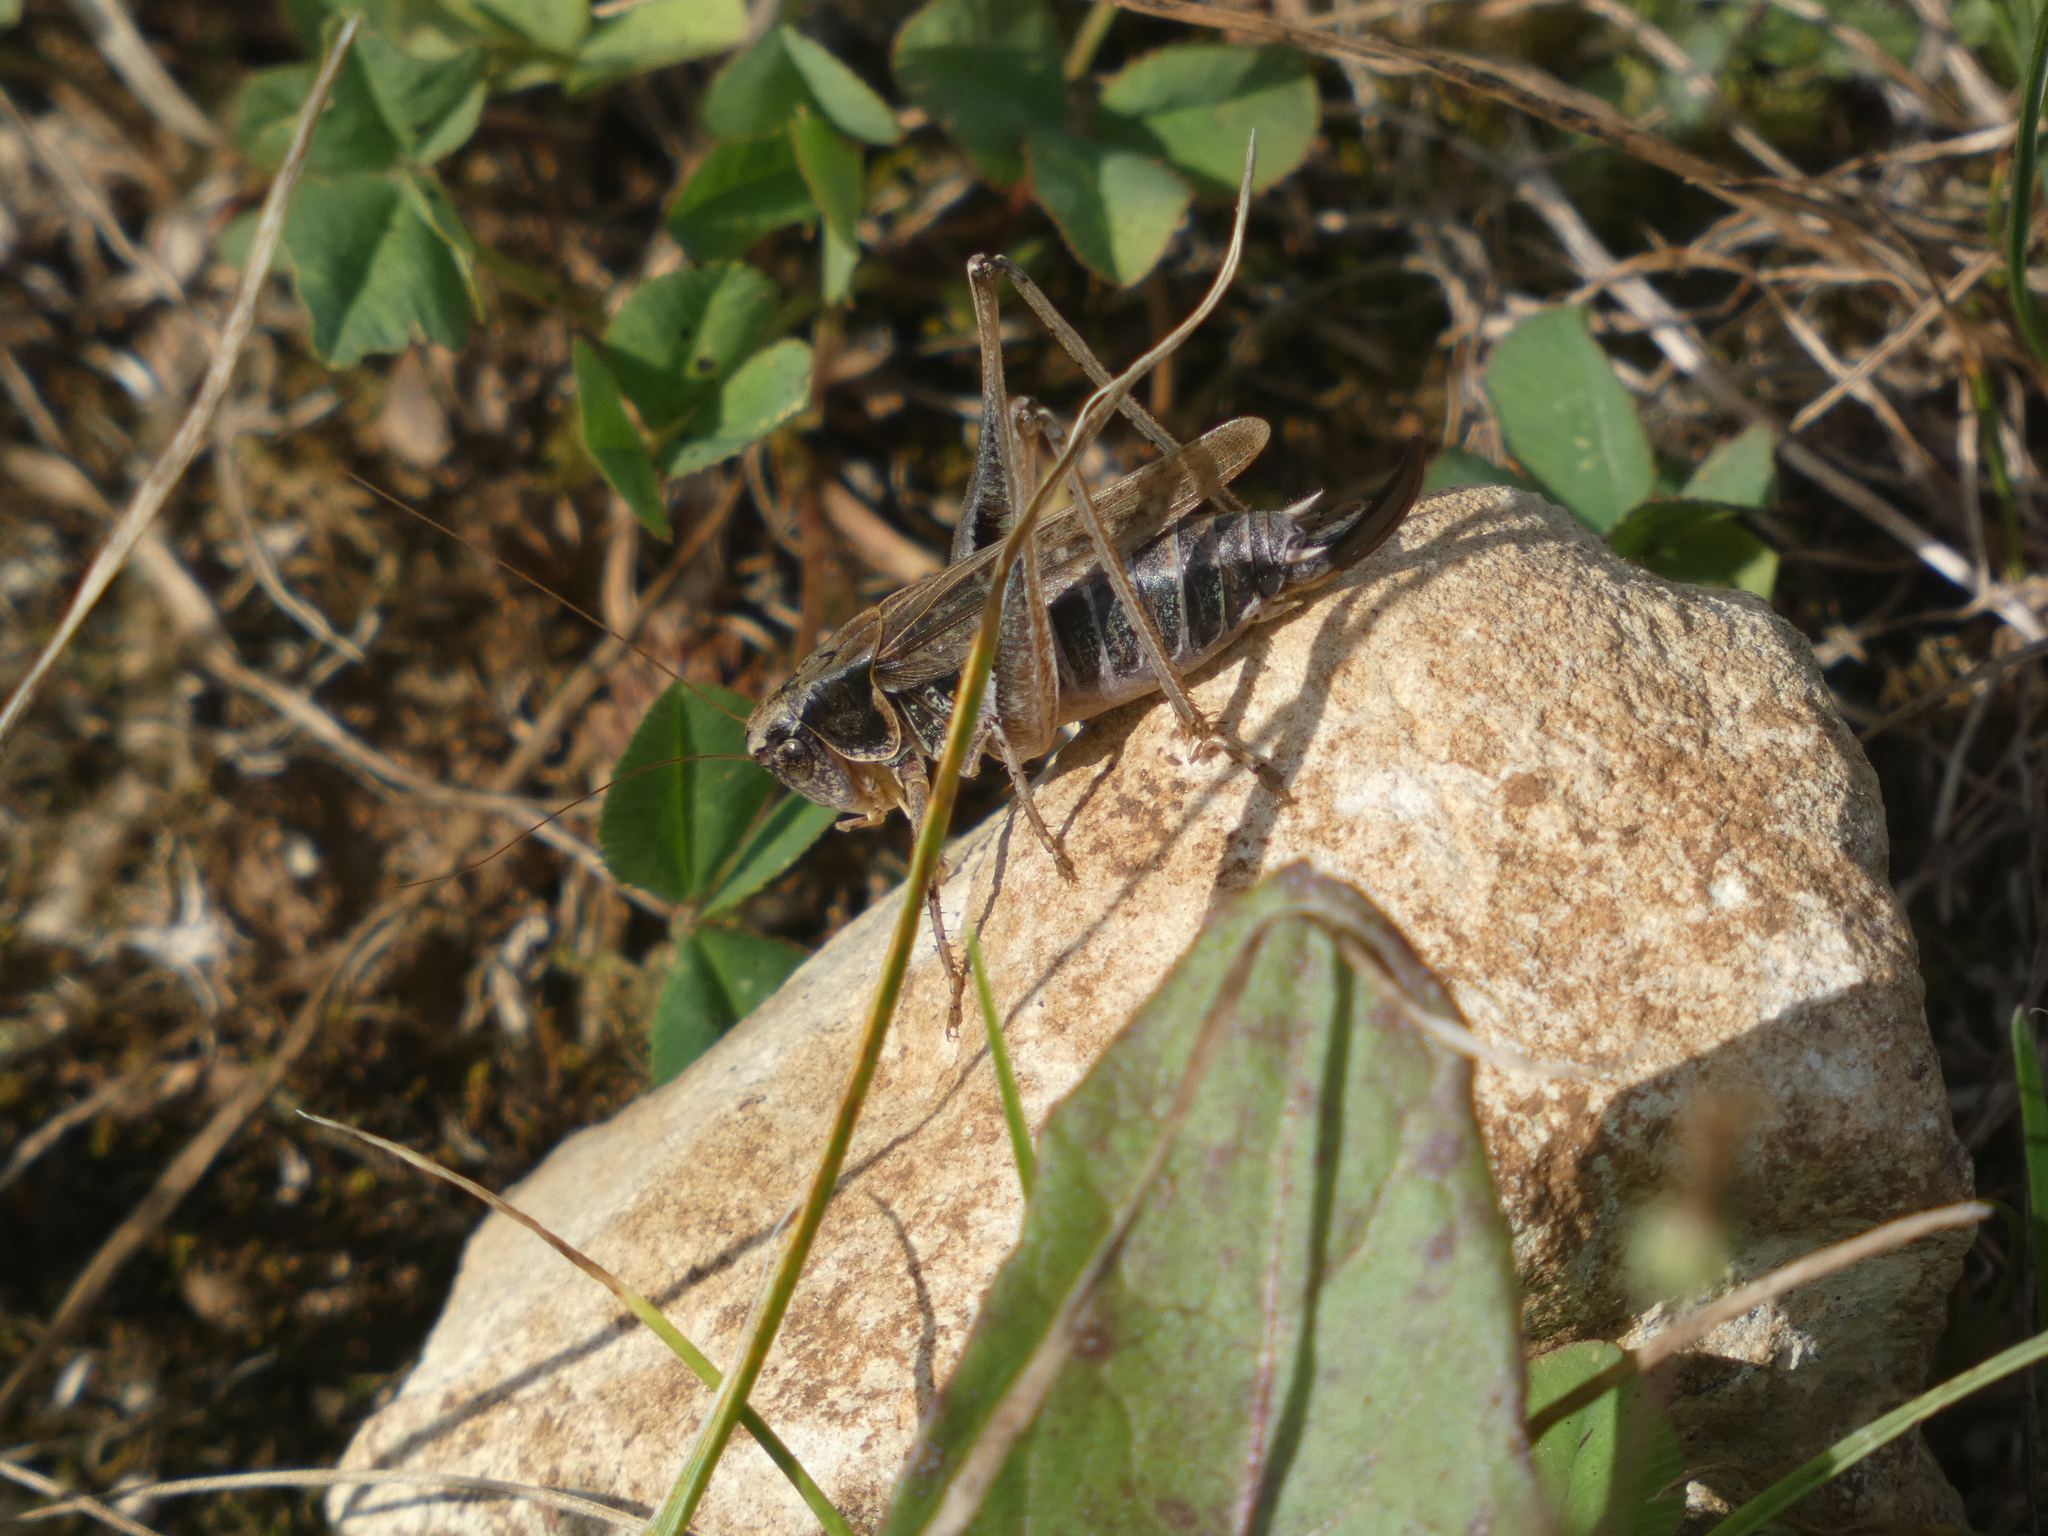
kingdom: Animalia
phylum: Arthropoda
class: Insecta
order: Orthoptera
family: Tettigoniidae
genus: Platycleis
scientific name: Platycleis albopunctata
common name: Grey bush-cricket
